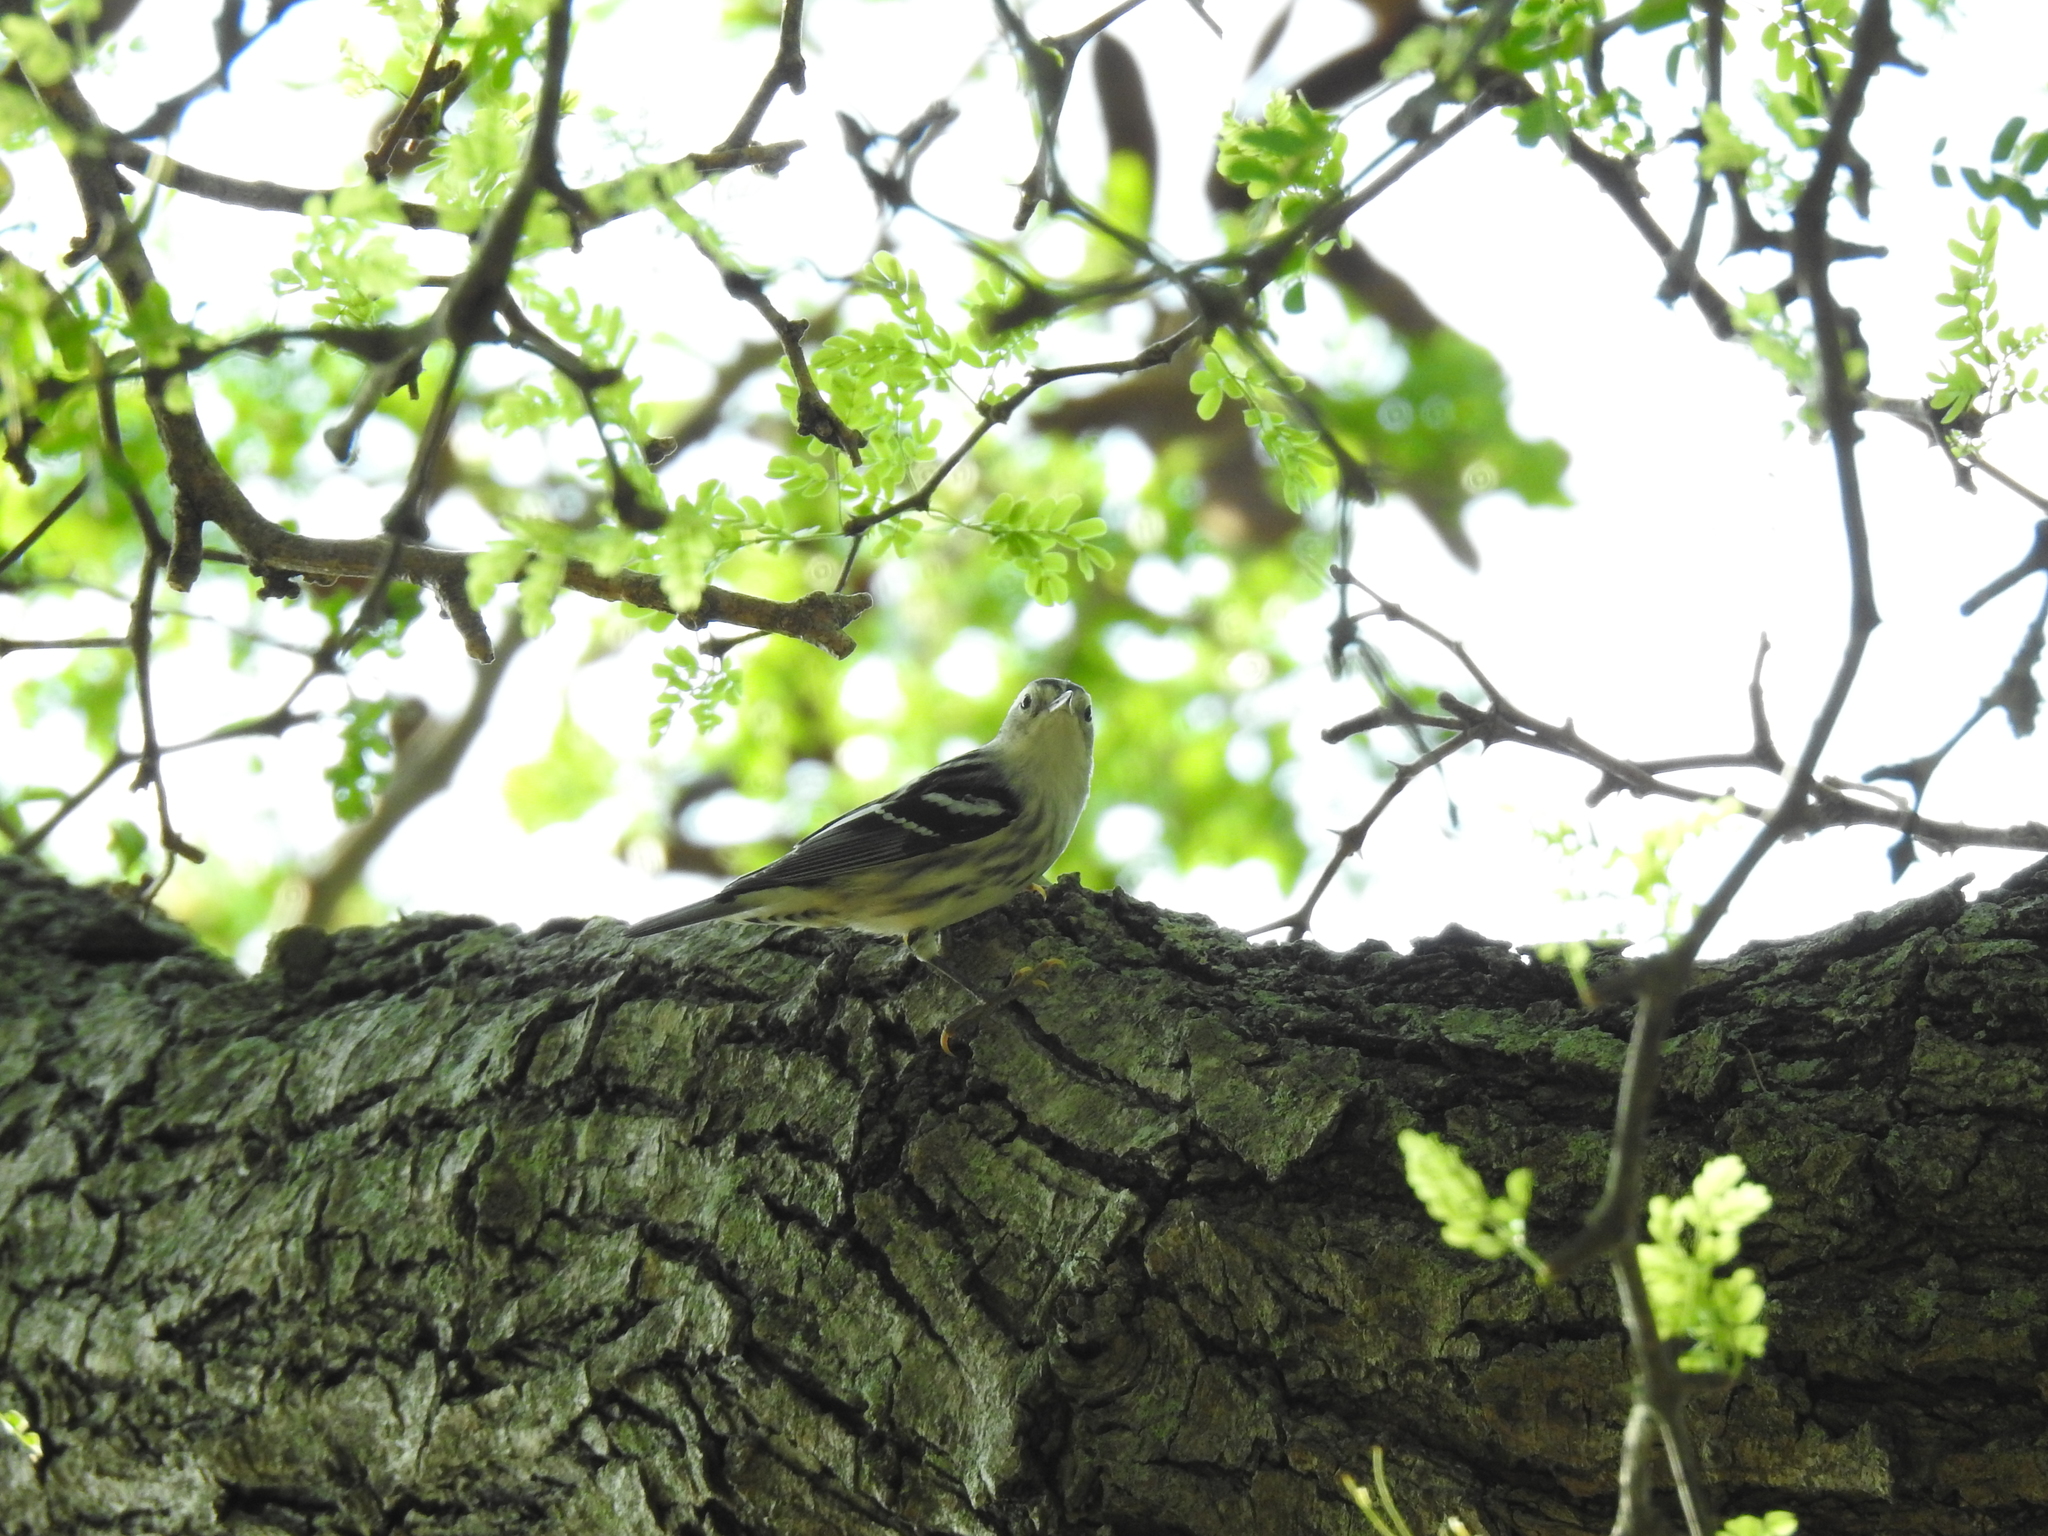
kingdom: Animalia
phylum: Chordata
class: Aves
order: Passeriformes
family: Parulidae
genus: Mniotilta
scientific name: Mniotilta varia
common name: Black-and-white warbler
